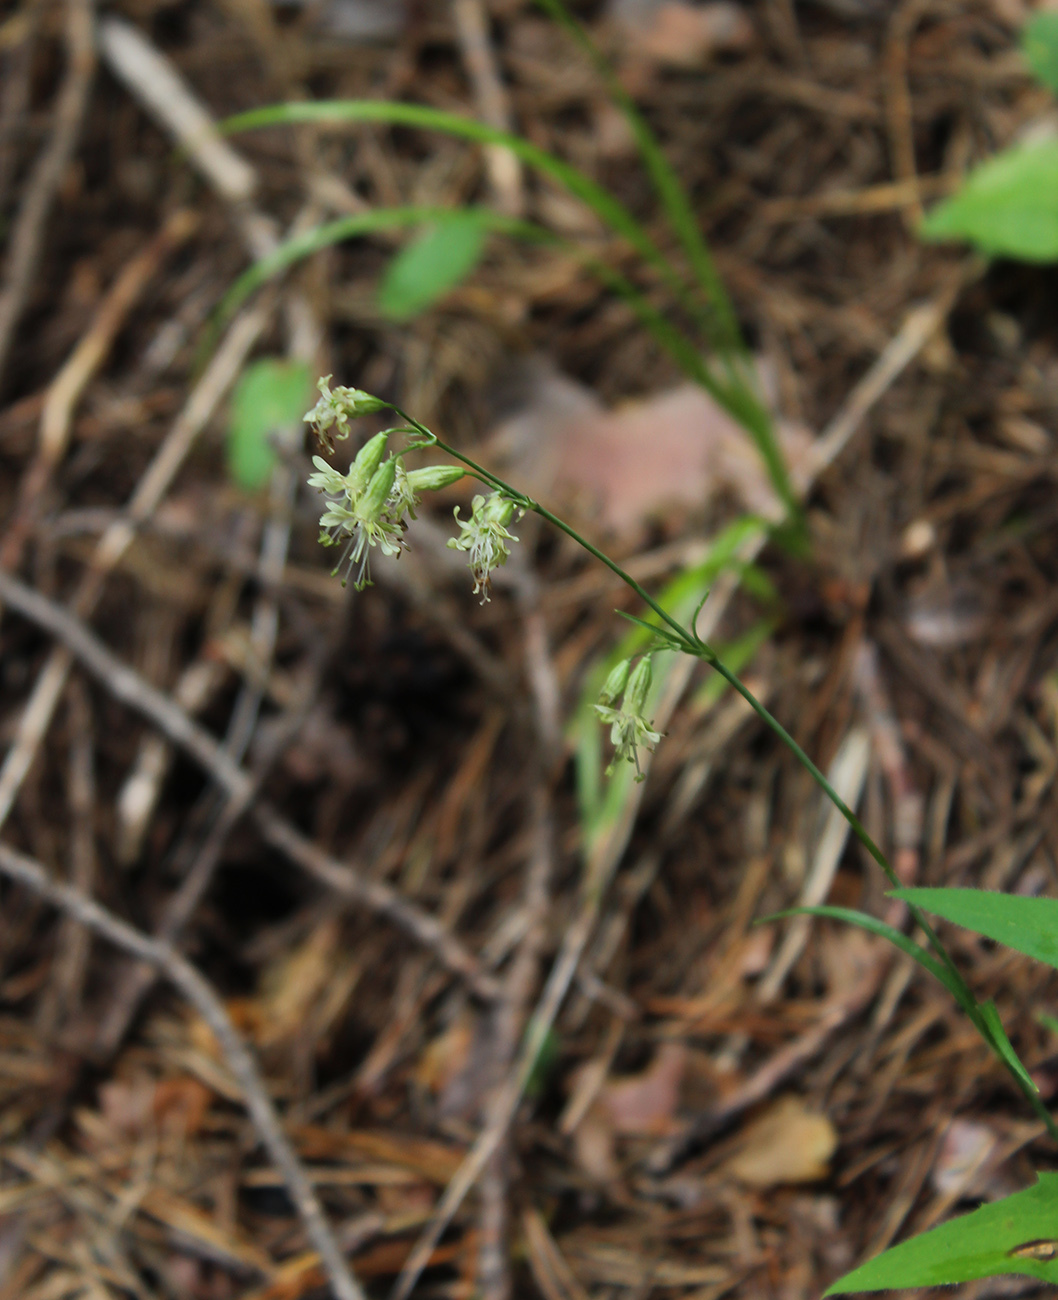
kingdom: Plantae
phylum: Tracheophyta
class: Magnoliopsida
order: Caryophyllales
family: Caryophyllaceae
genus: Silene
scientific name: Silene saxatilis
